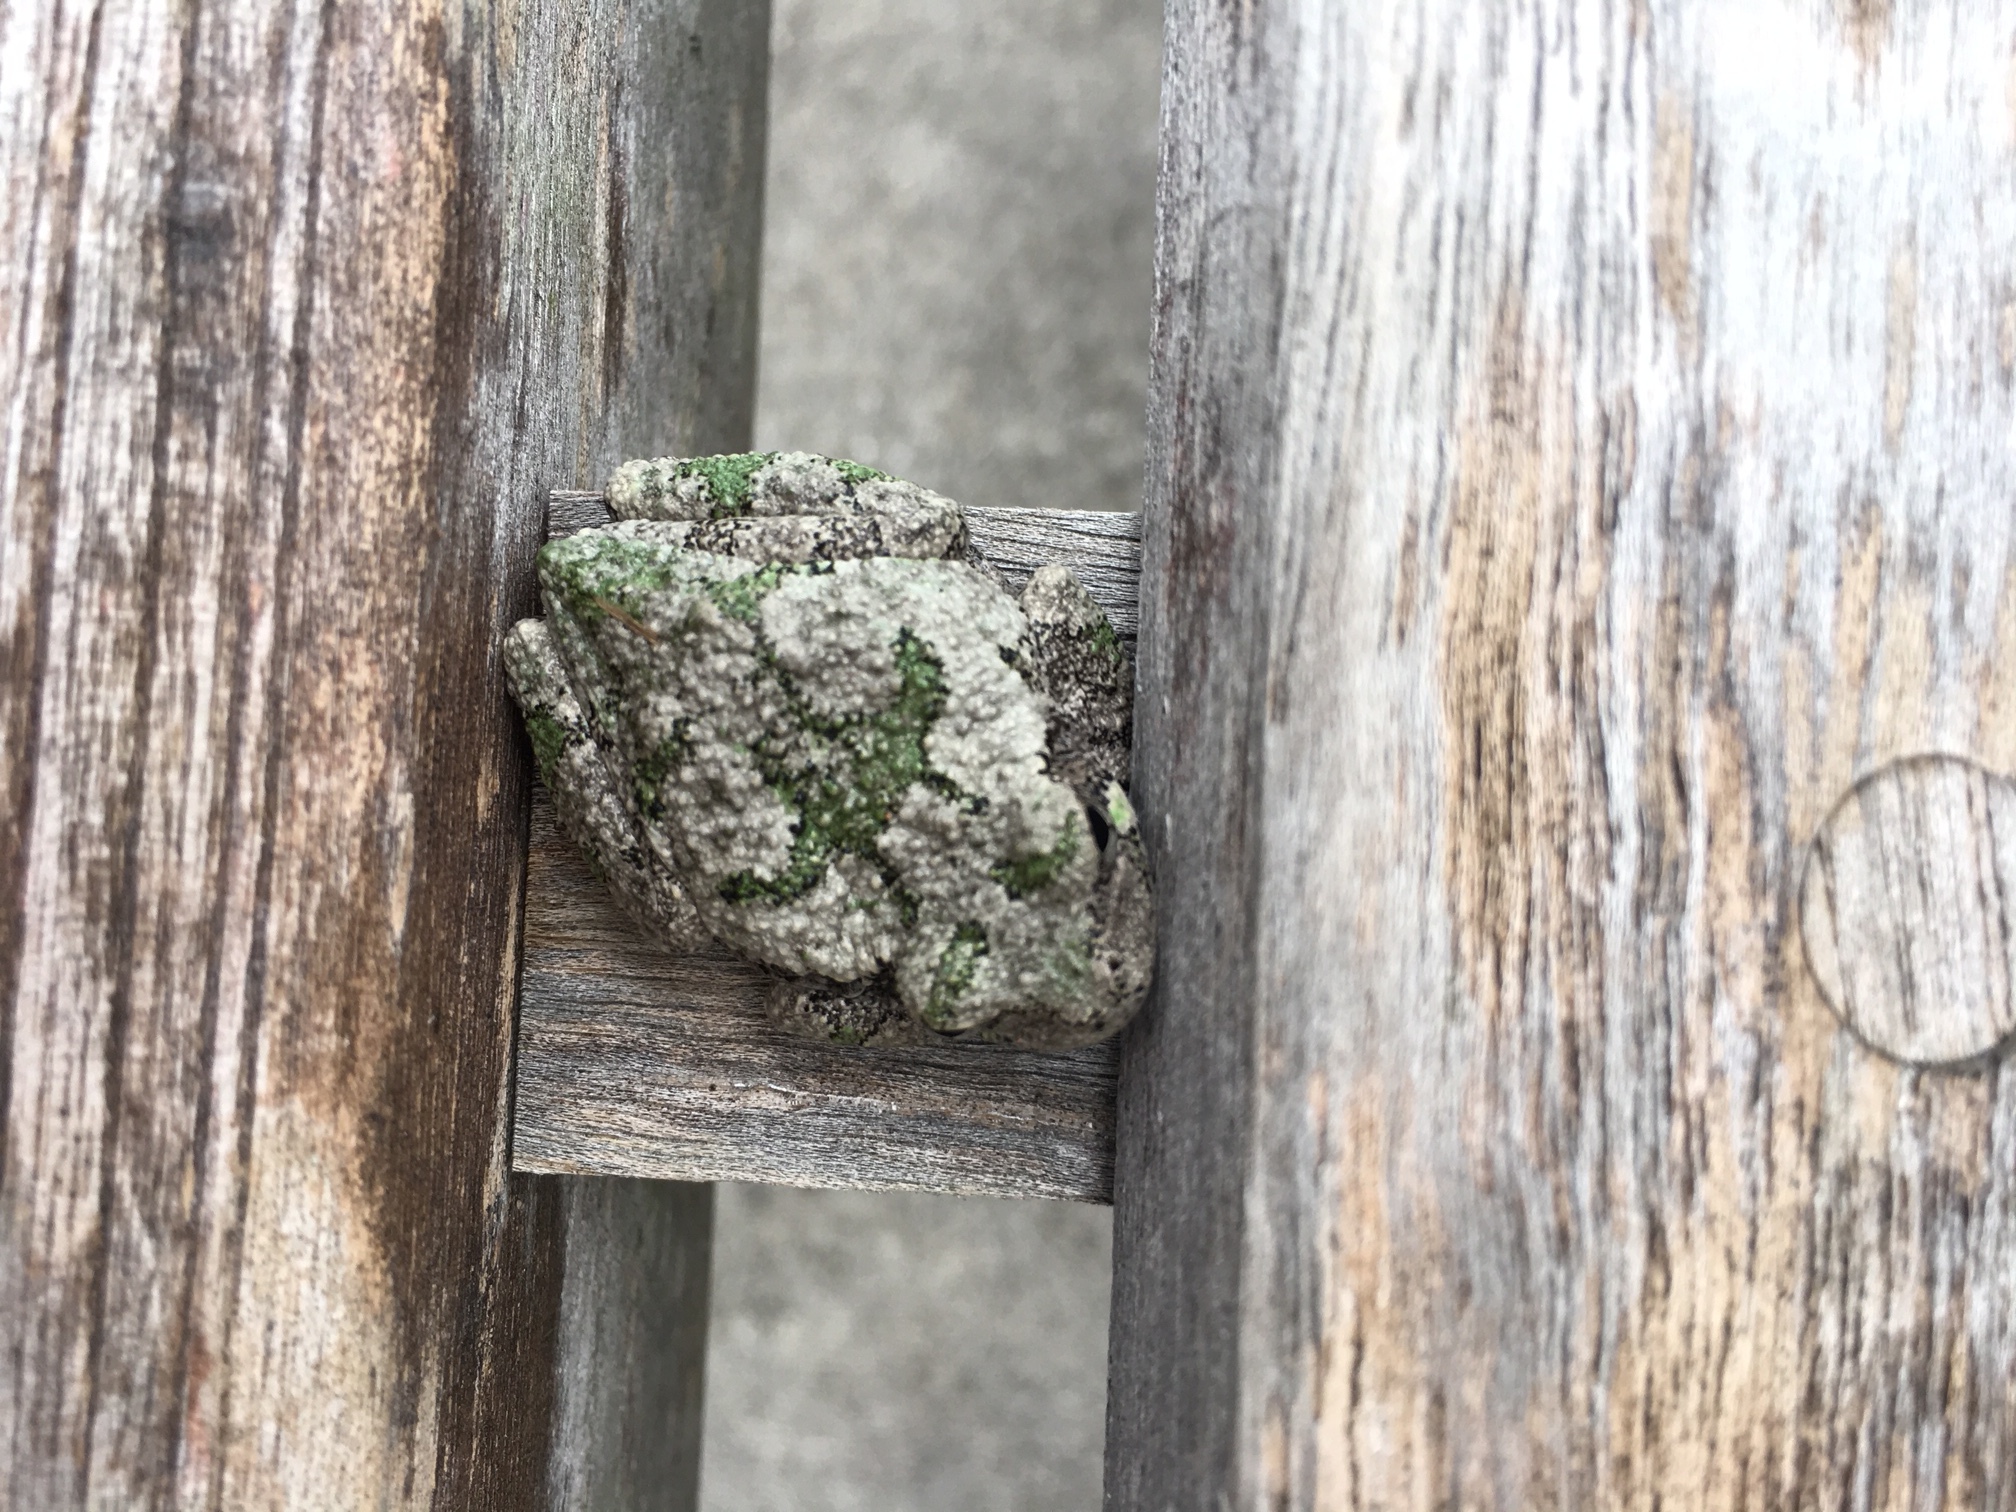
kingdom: Animalia
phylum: Chordata
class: Amphibia
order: Anura
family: Hylidae
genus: Hyla
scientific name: Hyla
